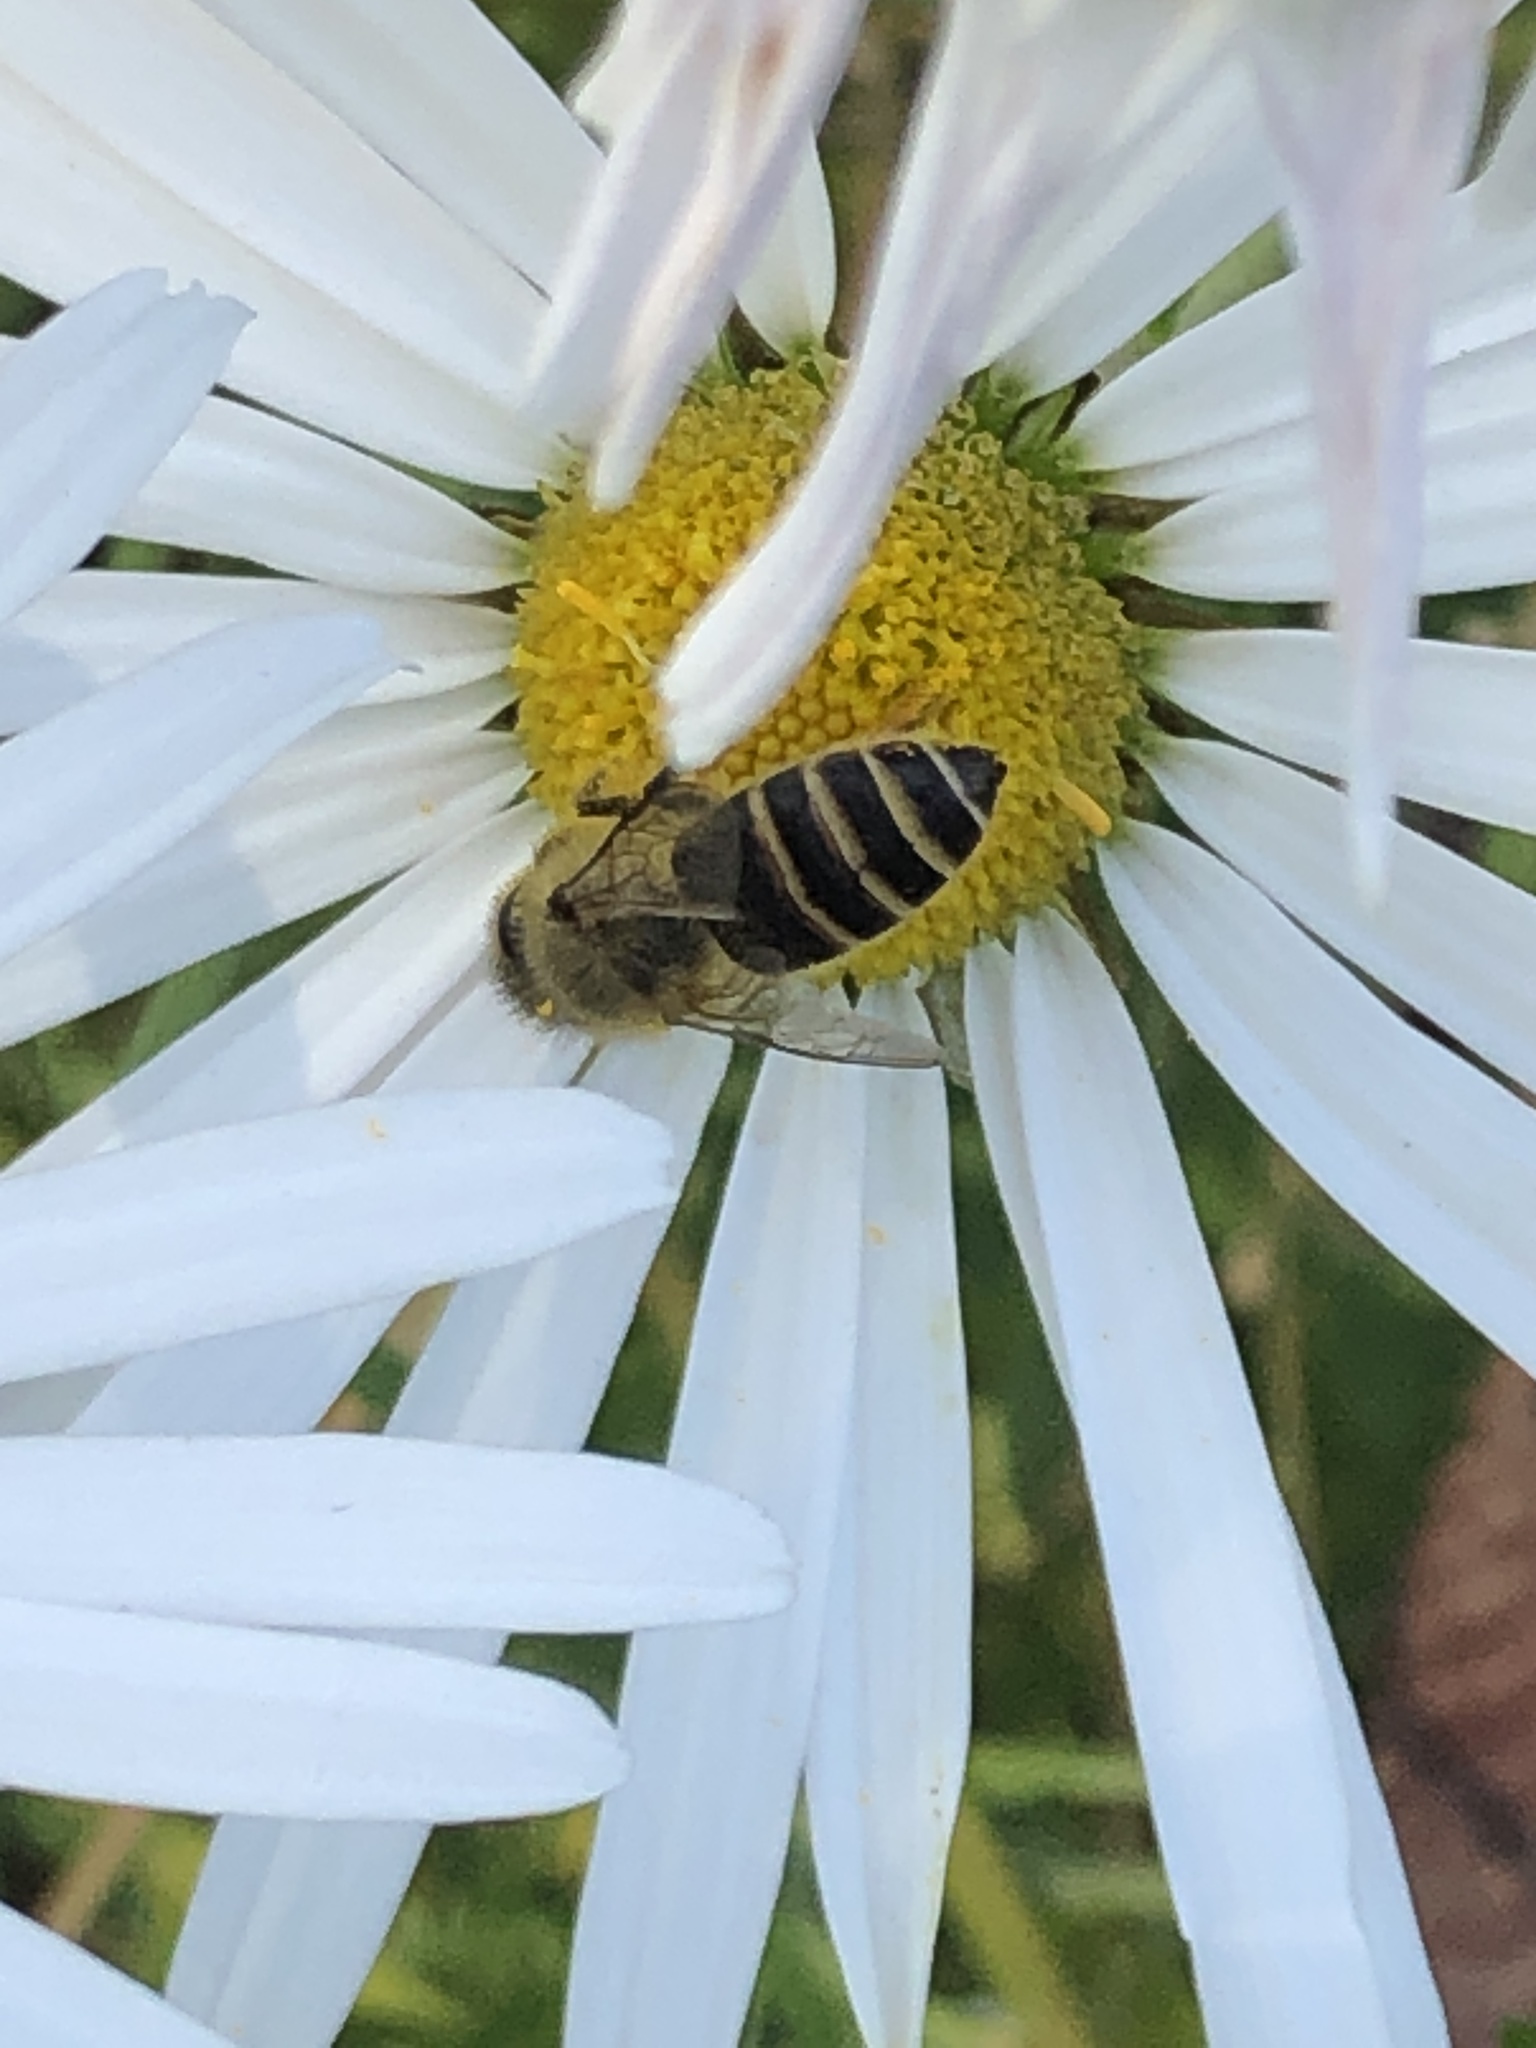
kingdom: Animalia
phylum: Arthropoda
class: Insecta
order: Hymenoptera
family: Apidae
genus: Apis
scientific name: Apis cerana
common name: Honey bee
